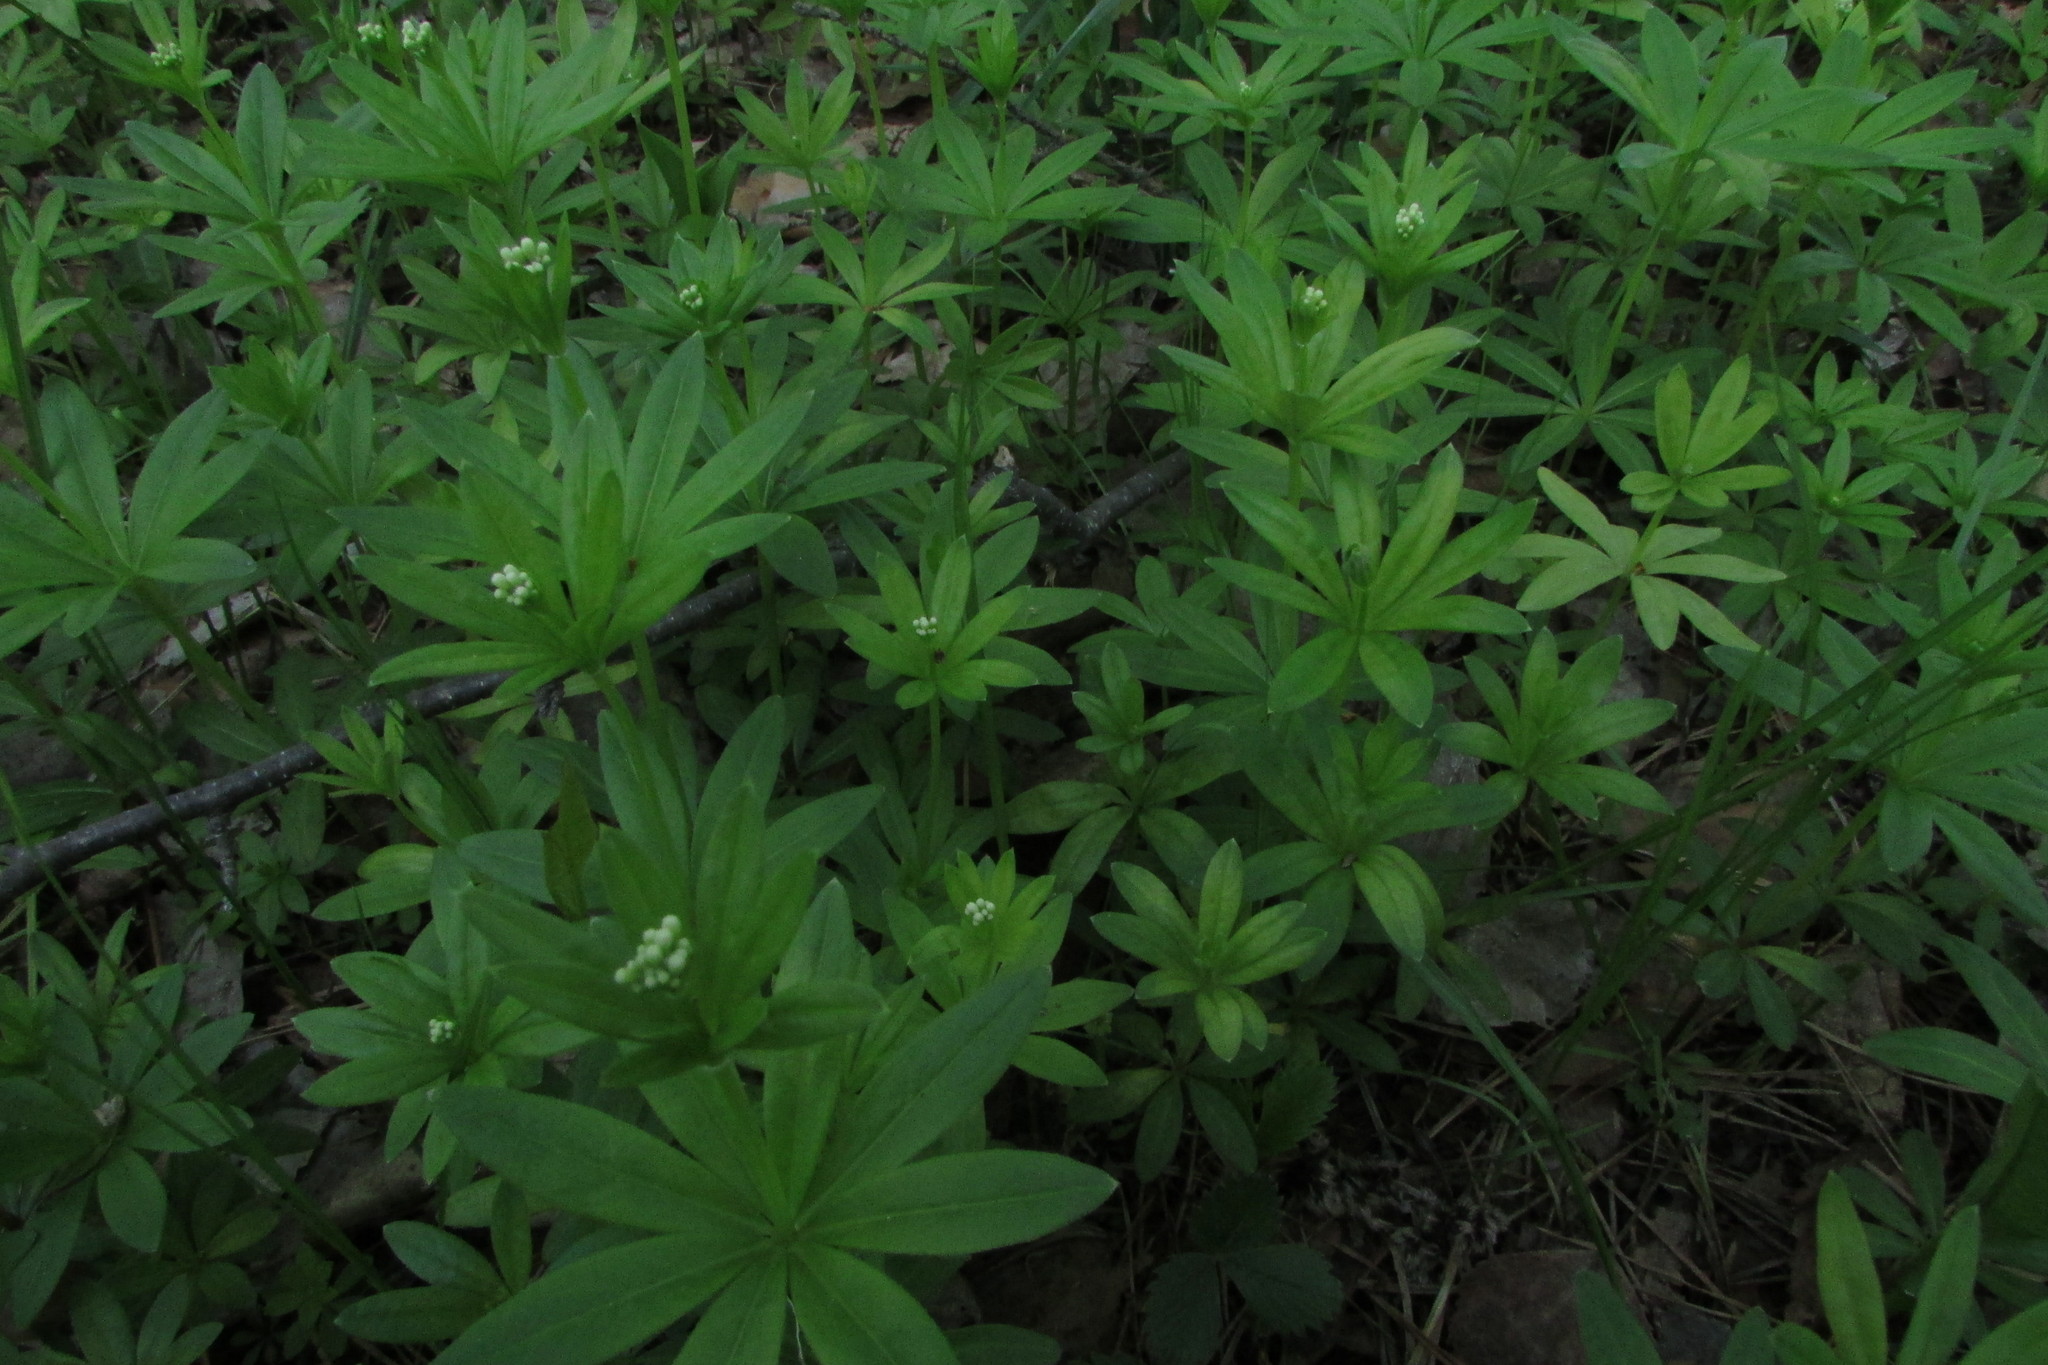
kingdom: Plantae
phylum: Tracheophyta
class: Magnoliopsida
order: Gentianales
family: Rubiaceae
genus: Galium
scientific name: Galium odoratum
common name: Sweet woodruff
